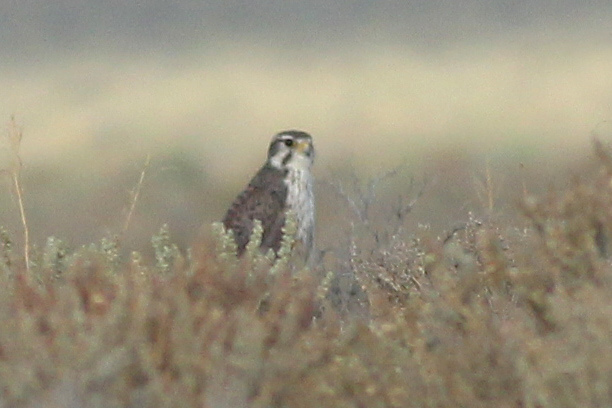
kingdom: Animalia
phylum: Chordata
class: Aves
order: Falconiformes
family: Falconidae
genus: Falco
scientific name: Falco mexicanus
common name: Prairie falcon
